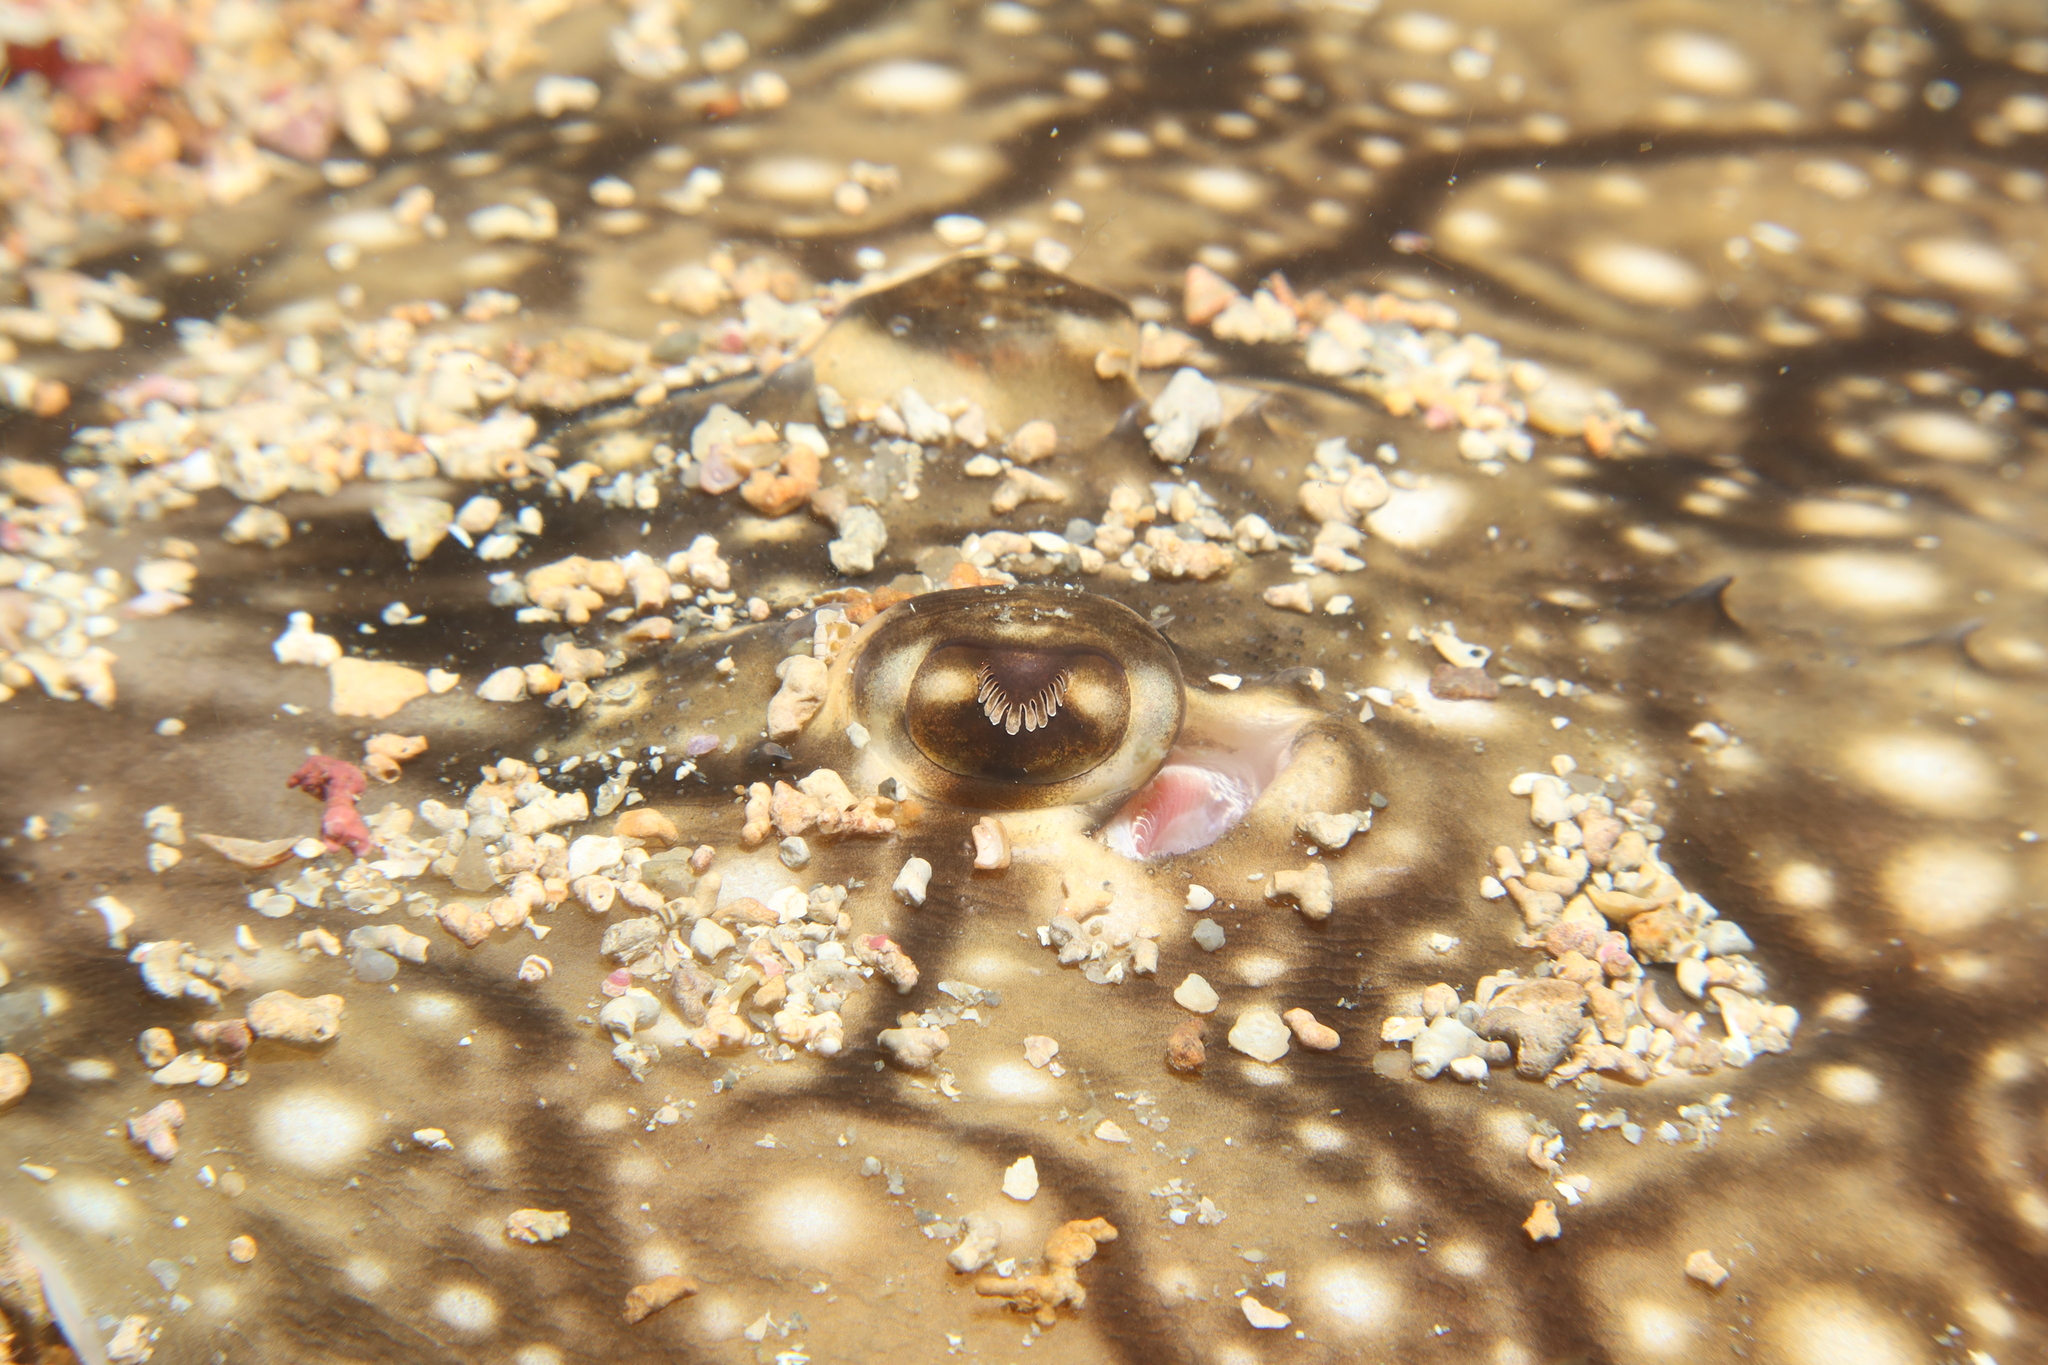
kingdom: Animalia
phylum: Chordata
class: Elasmobranchii
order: Rajiformes
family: Rajidae
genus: Raja
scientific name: Raja undulata
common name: Undulate ray
